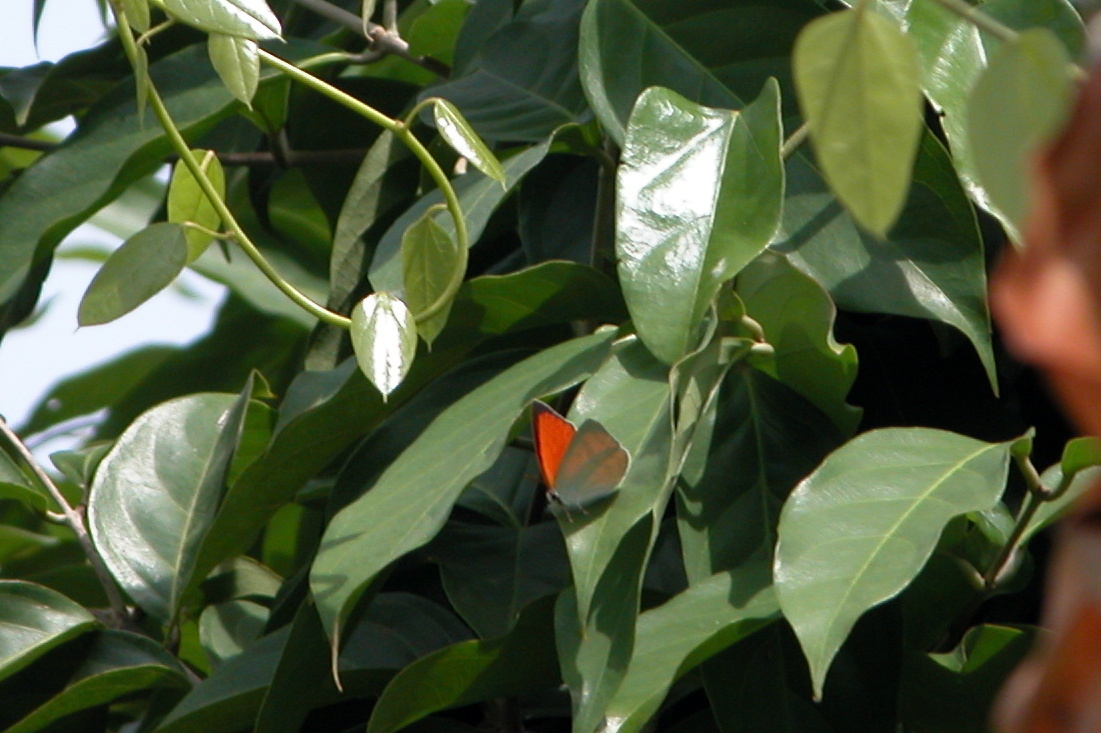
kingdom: Animalia
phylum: Arthropoda
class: Insecta
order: Lepidoptera
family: Lycaenidae
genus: Curetis
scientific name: Curetis thetis
